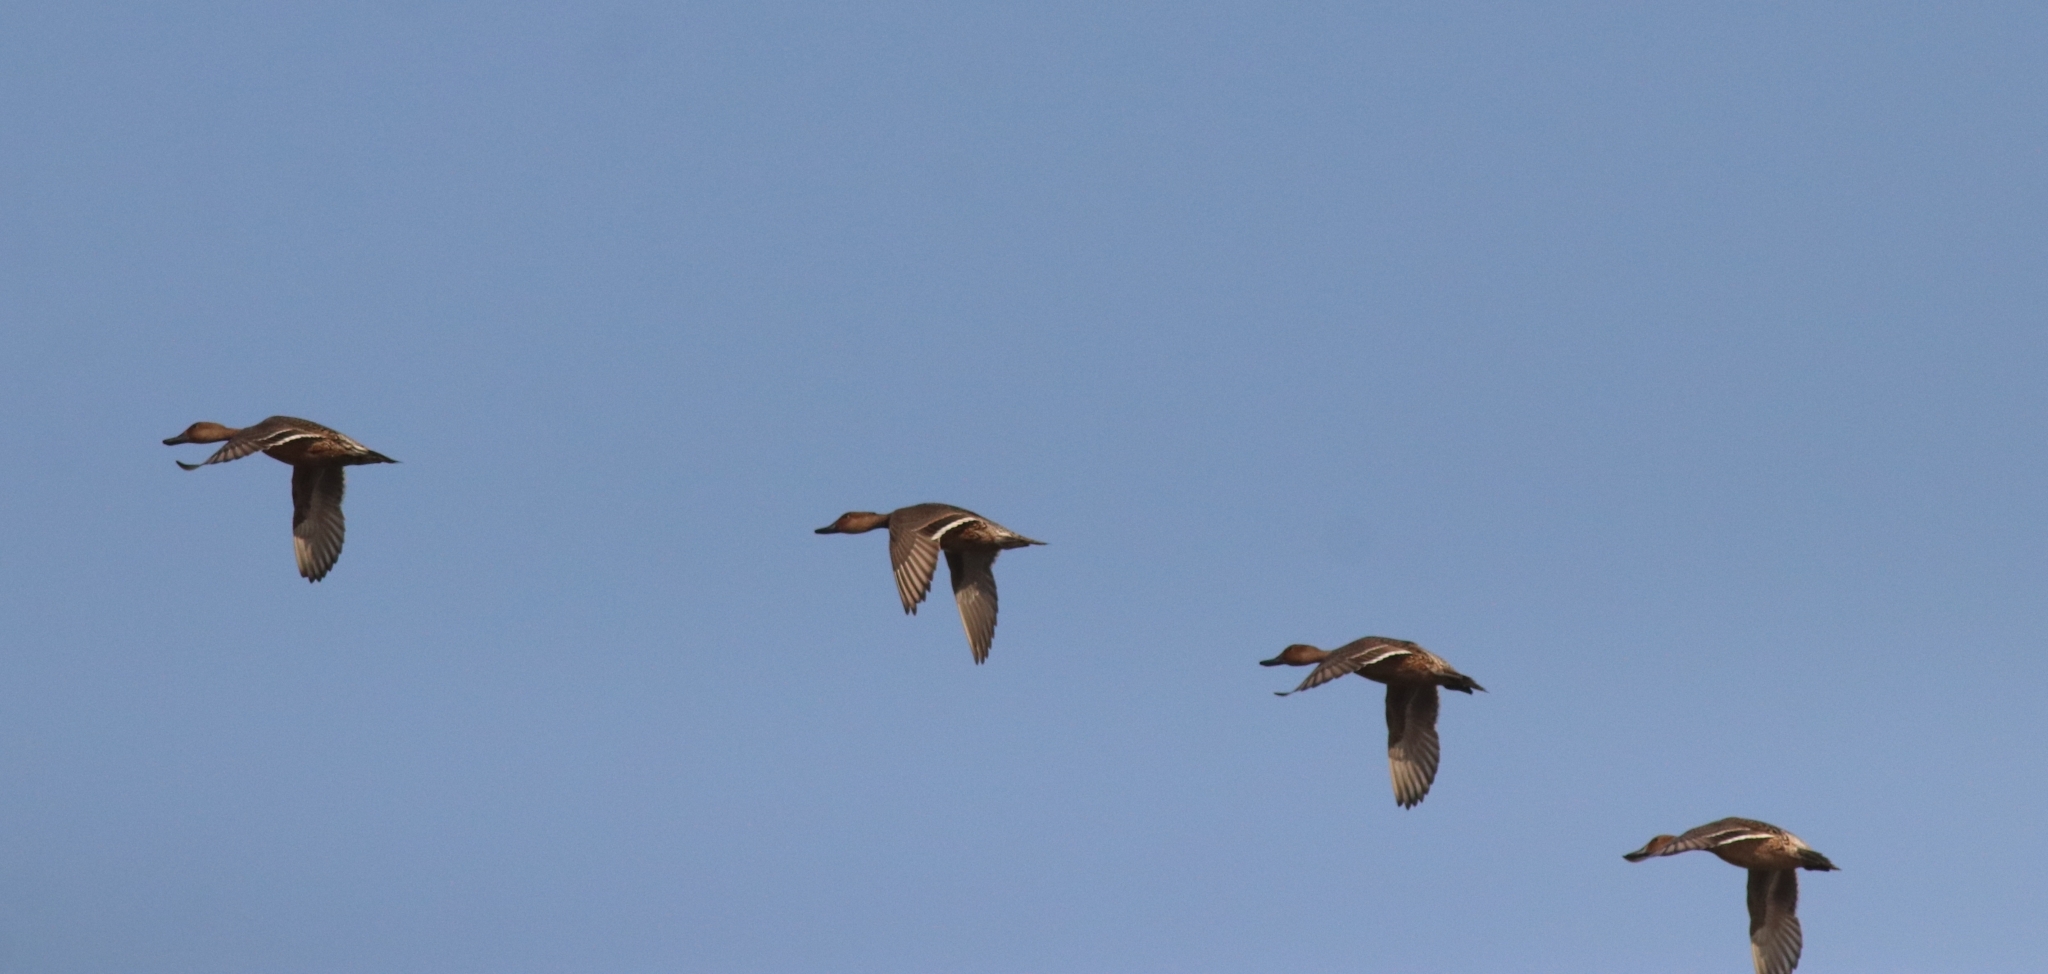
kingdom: Animalia
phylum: Chordata
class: Aves
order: Anseriformes
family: Anatidae
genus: Anas
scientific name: Anas acuta
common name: Northern pintail
